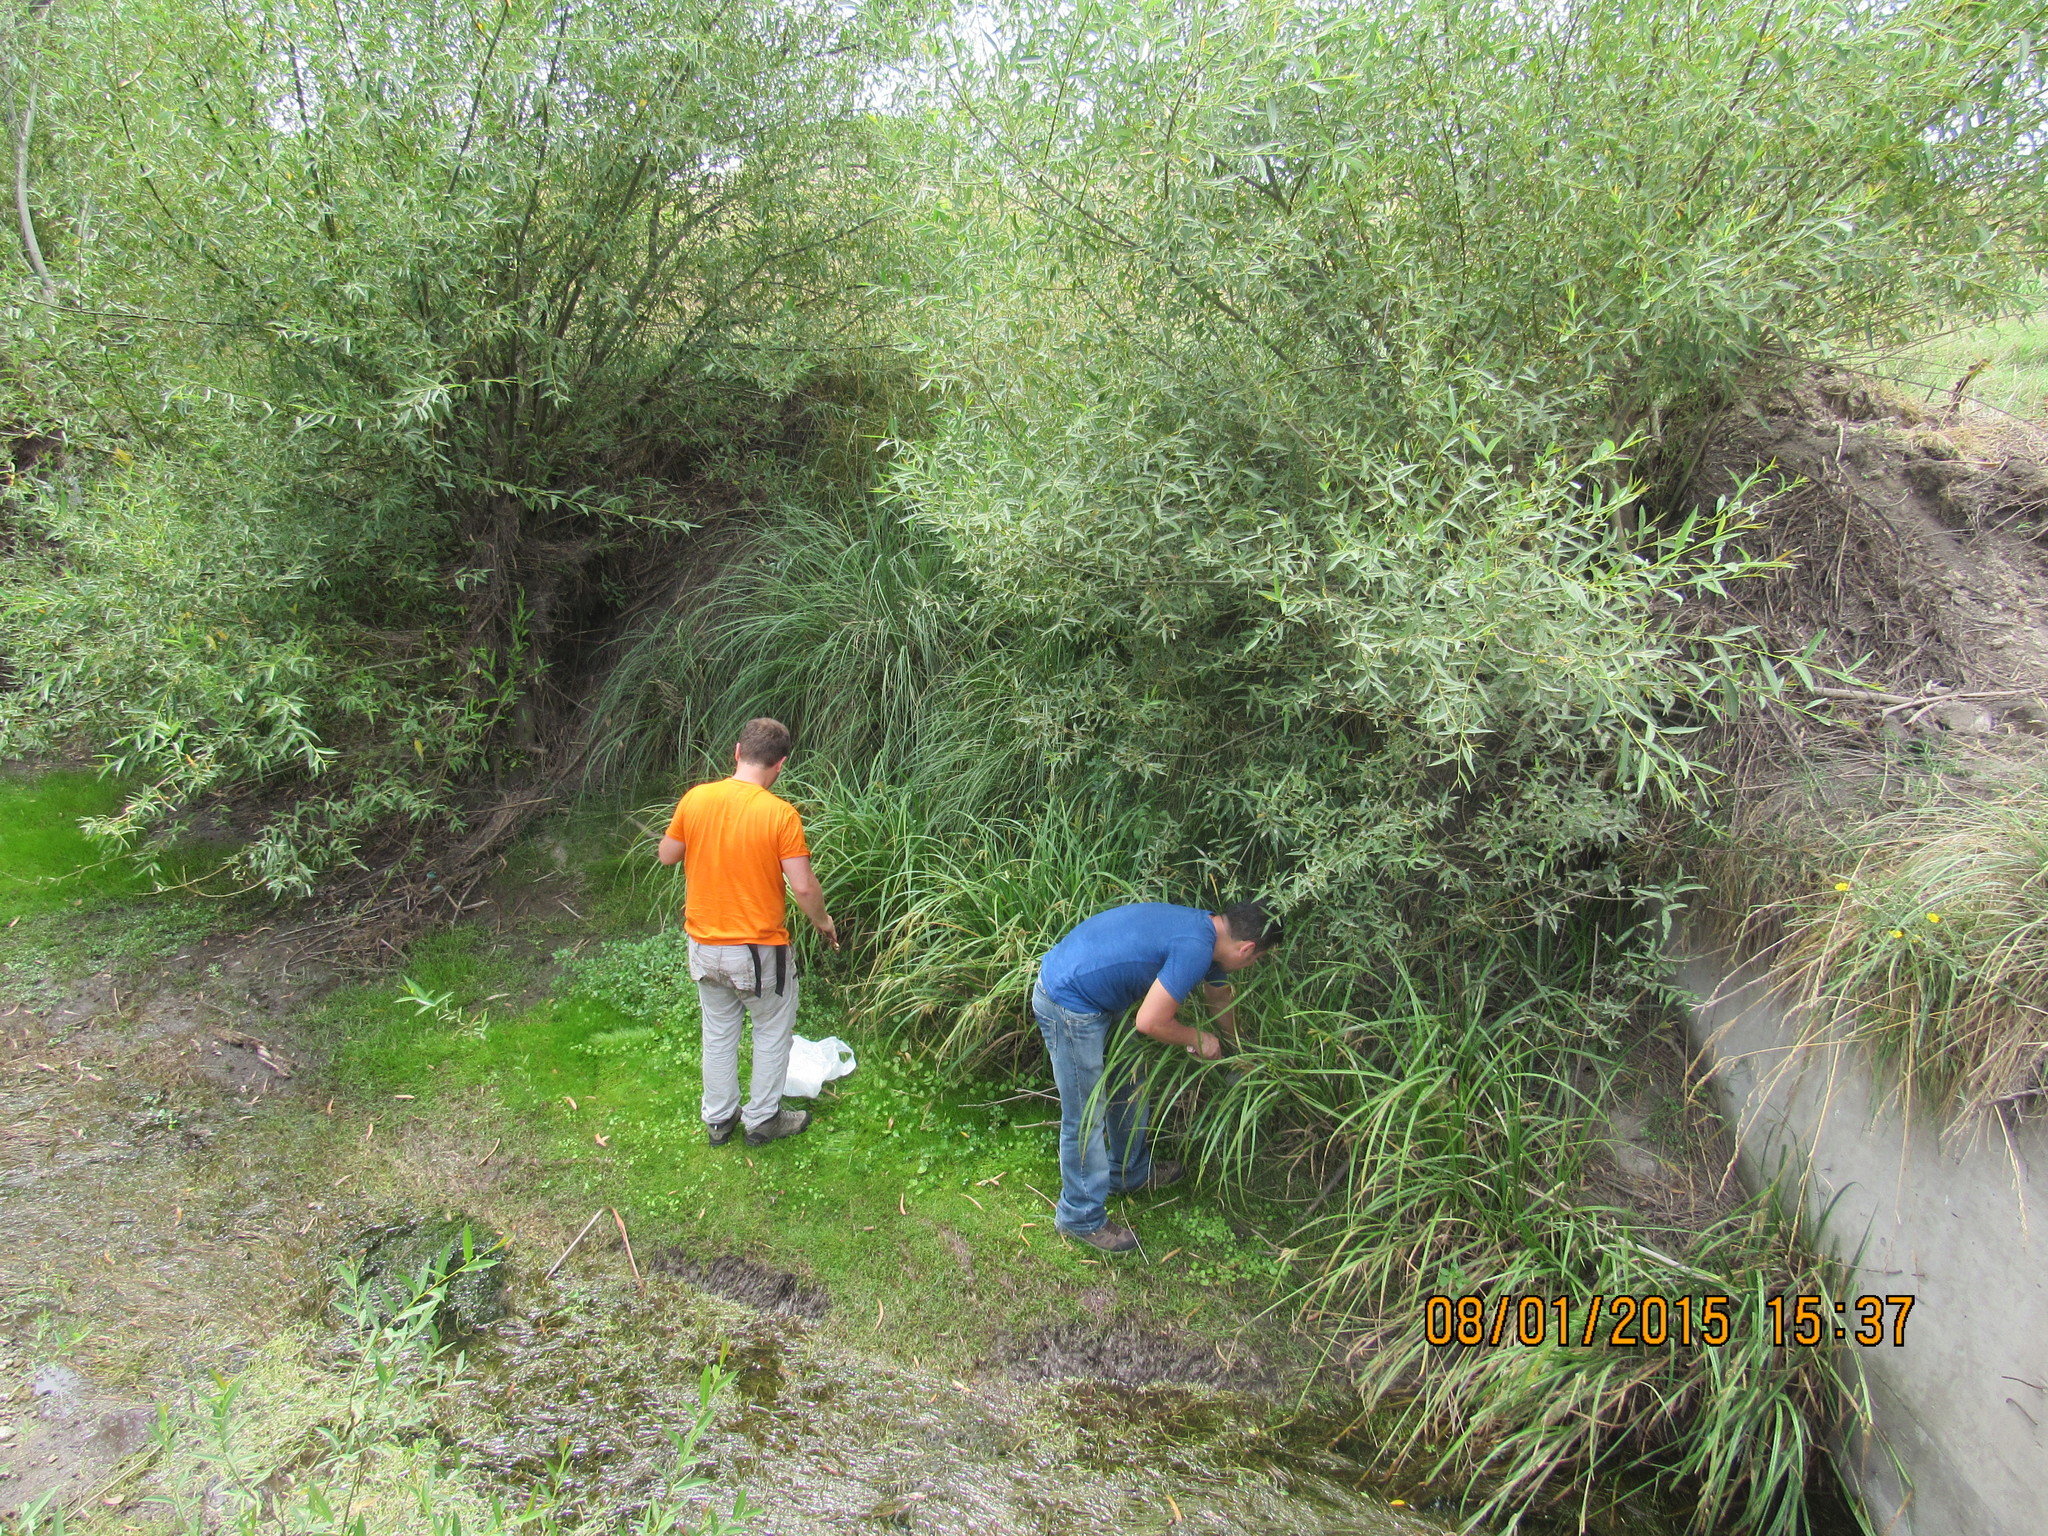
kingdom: Plantae
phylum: Tracheophyta
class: Liliopsida
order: Poales
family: Cyperaceae
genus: Carex
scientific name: Carex polysticha
